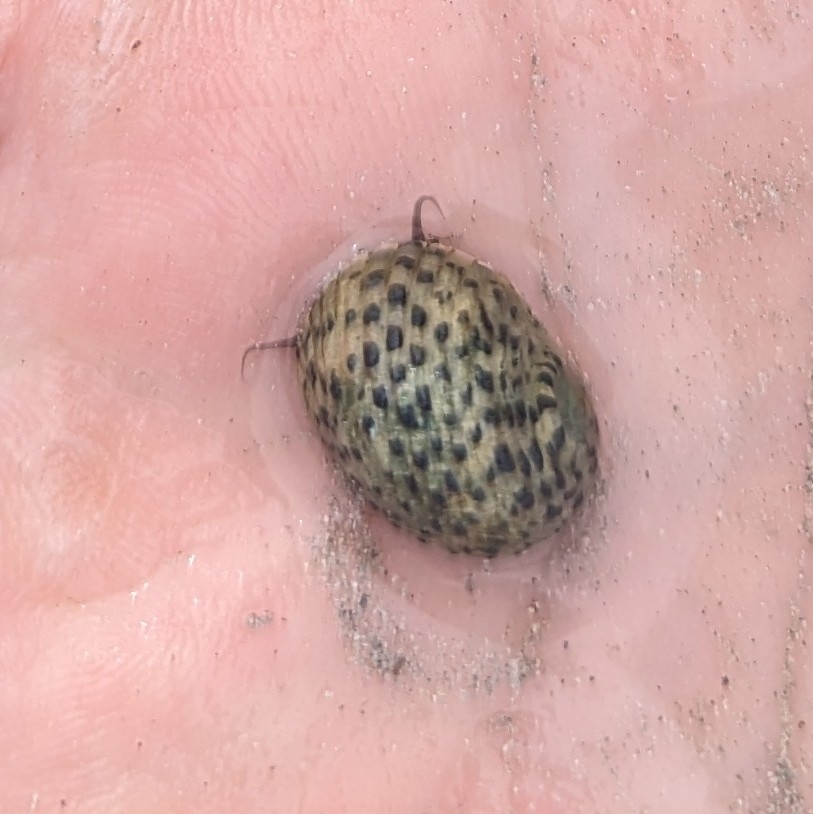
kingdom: Animalia
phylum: Mollusca
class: Gastropoda
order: Cycloneritida
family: Neritidae
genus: Nerita
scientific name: Nerita tessellata
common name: Checkered nerite
